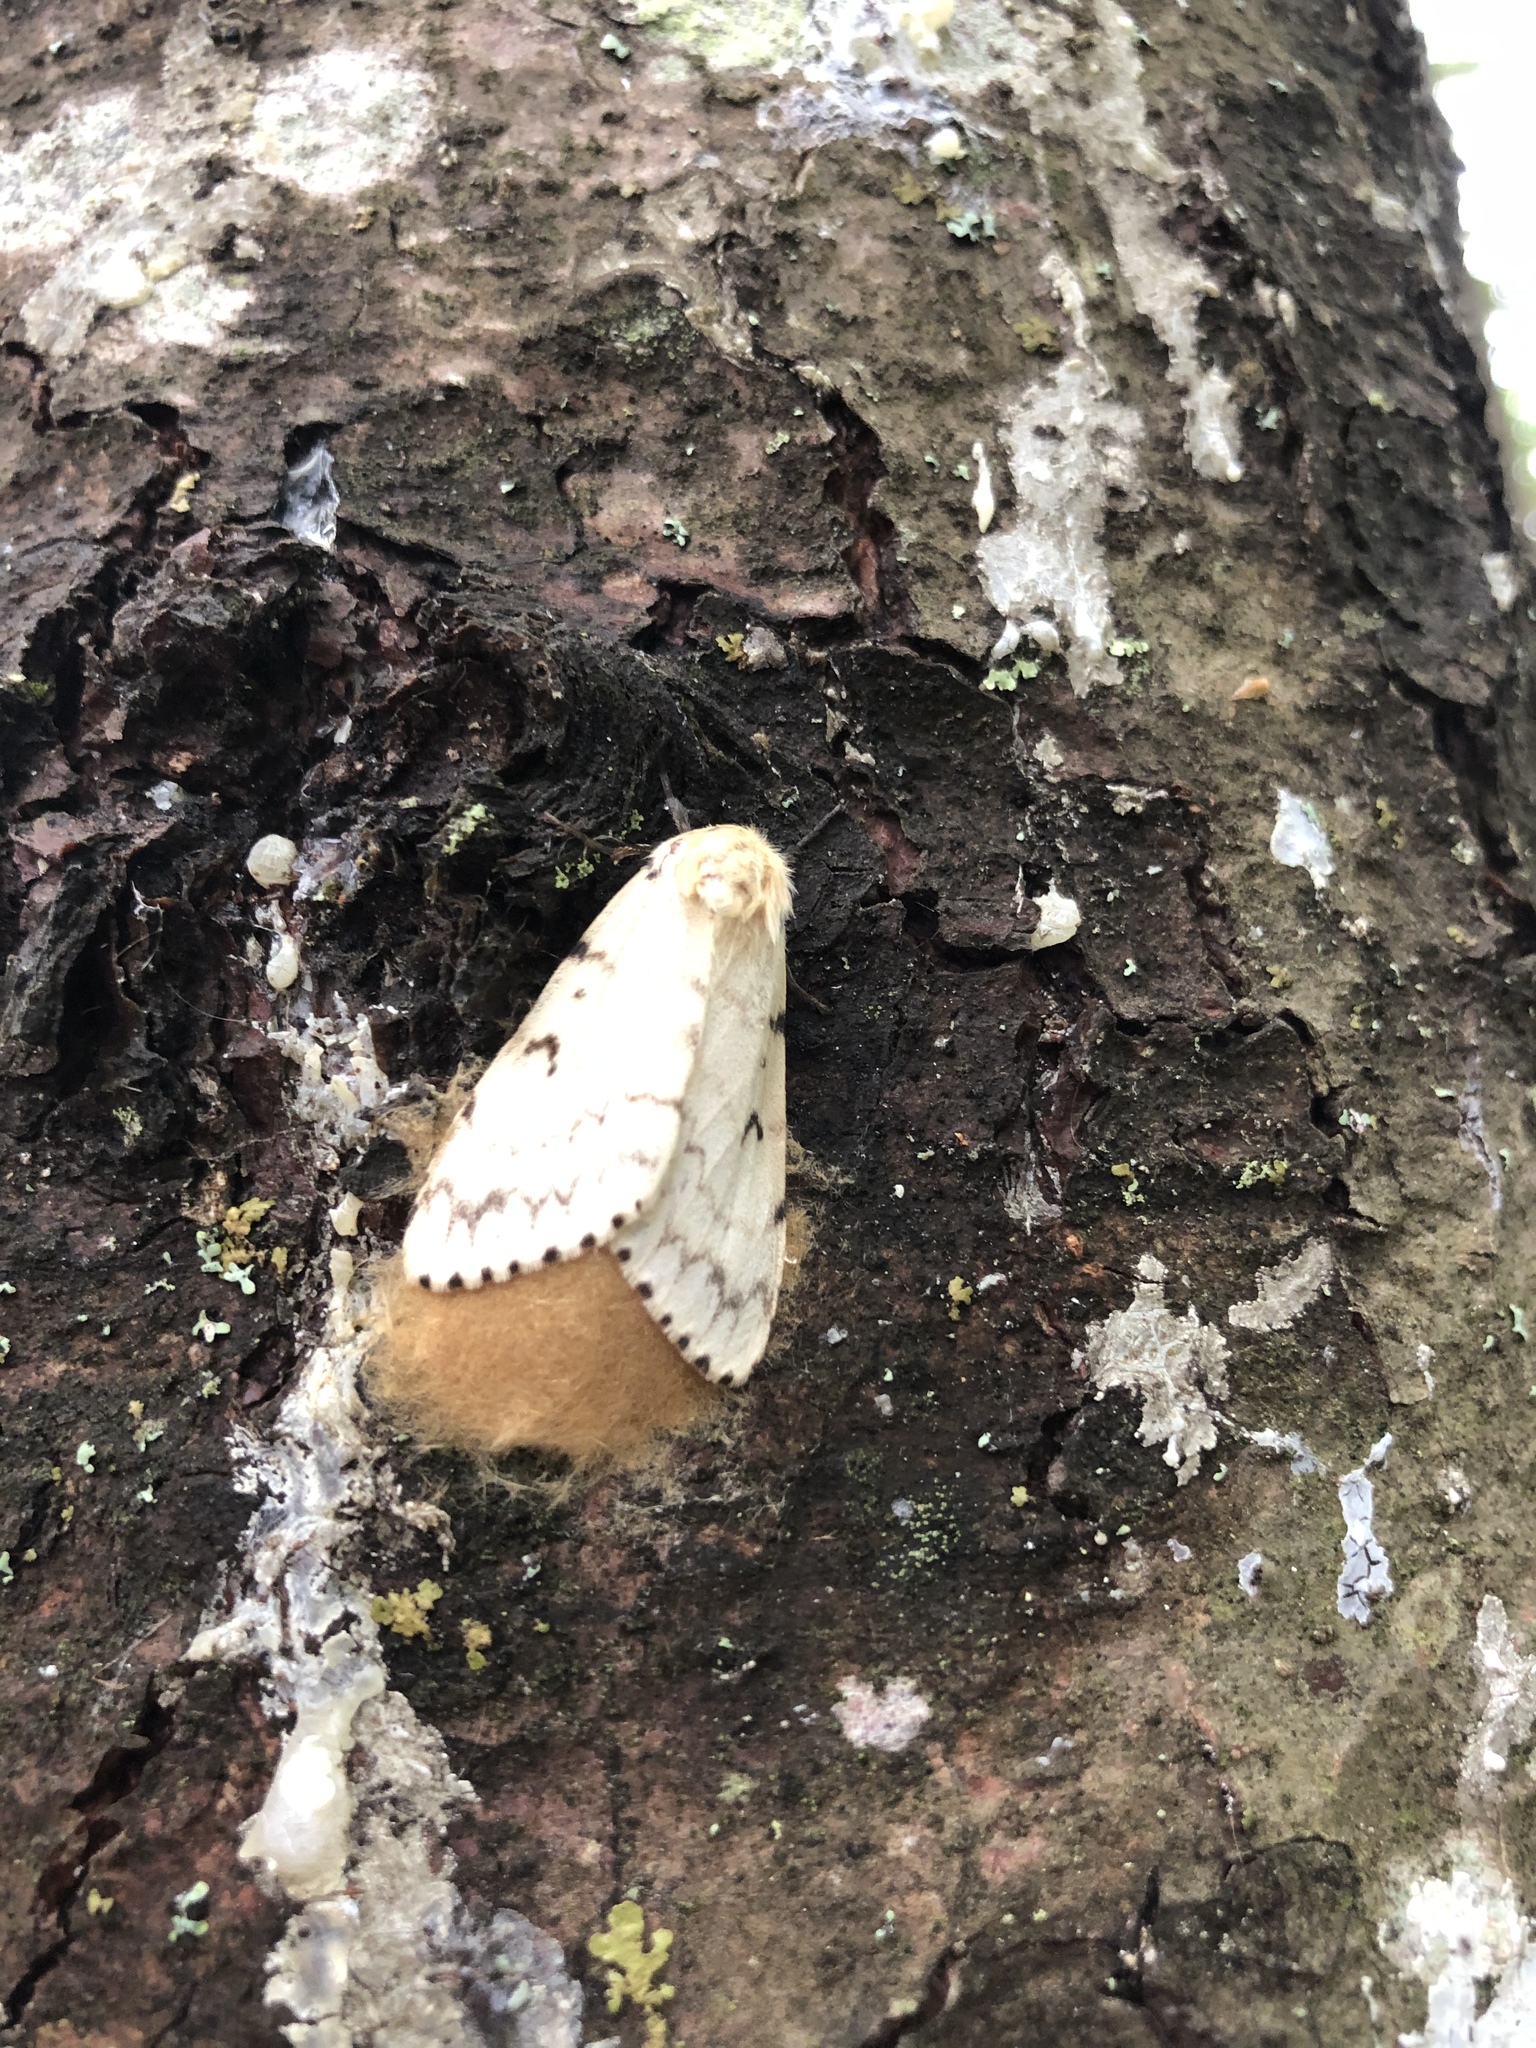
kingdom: Animalia
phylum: Arthropoda
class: Insecta
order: Lepidoptera
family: Erebidae
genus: Lymantria
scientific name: Lymantria dispar
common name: Gypsy moth
